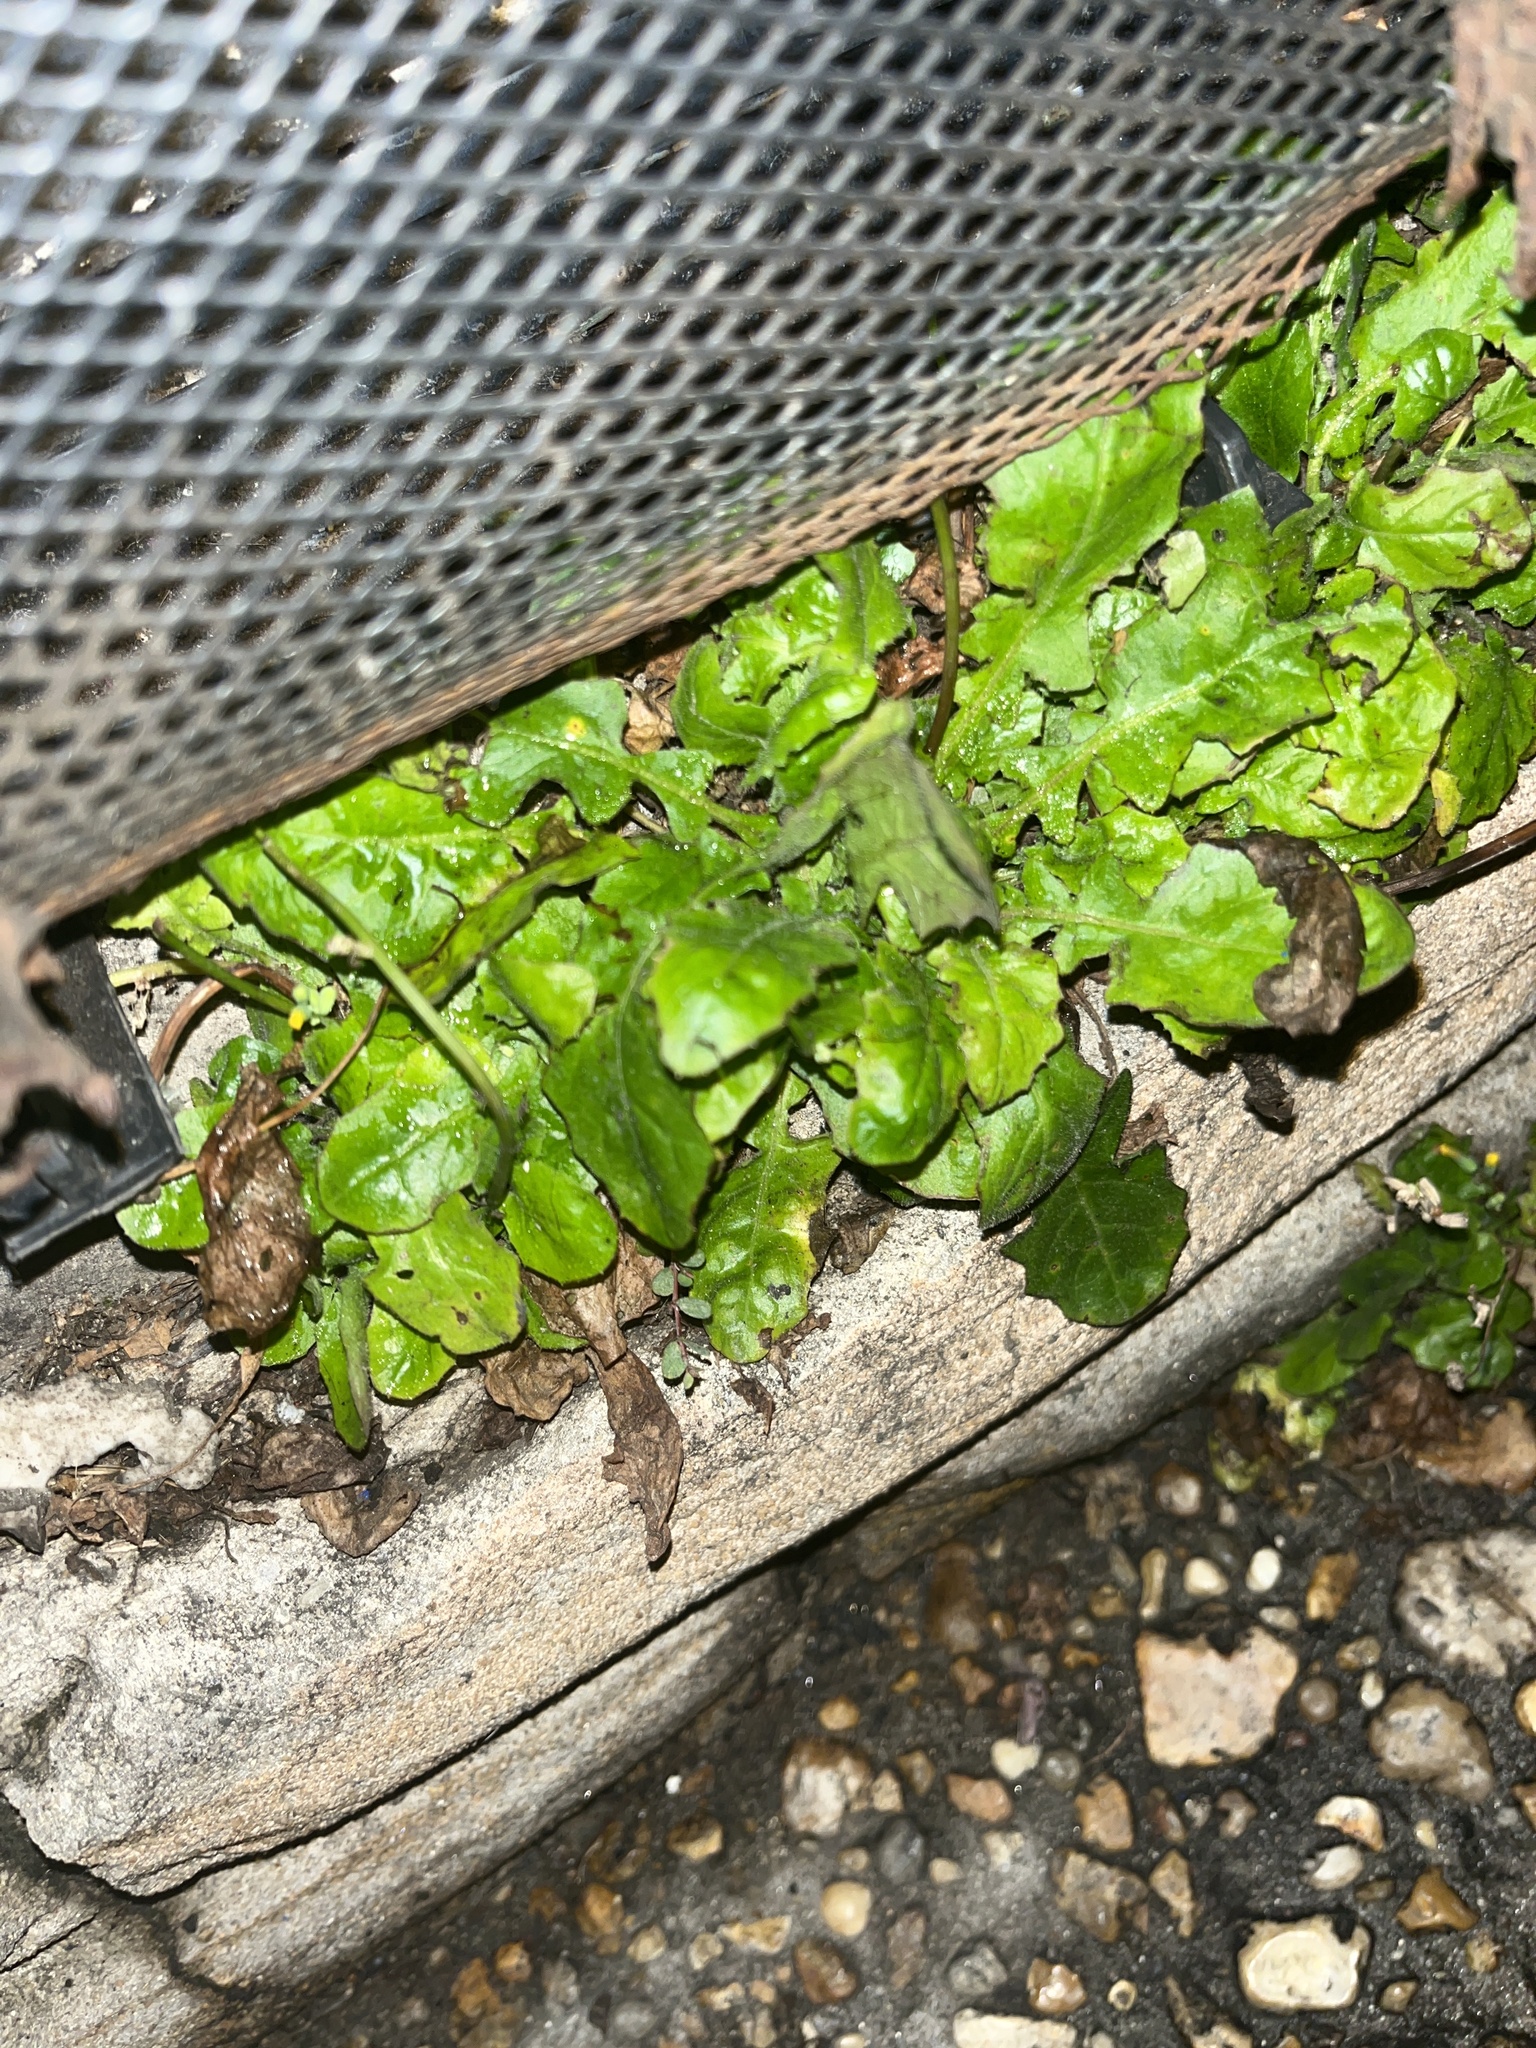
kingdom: Plantae
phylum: Tracheophyta
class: Magnoliopsida
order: Asterales
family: Asteraceae
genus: Youngia
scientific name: Youngia japonica
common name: Oriental false hawksbeard
